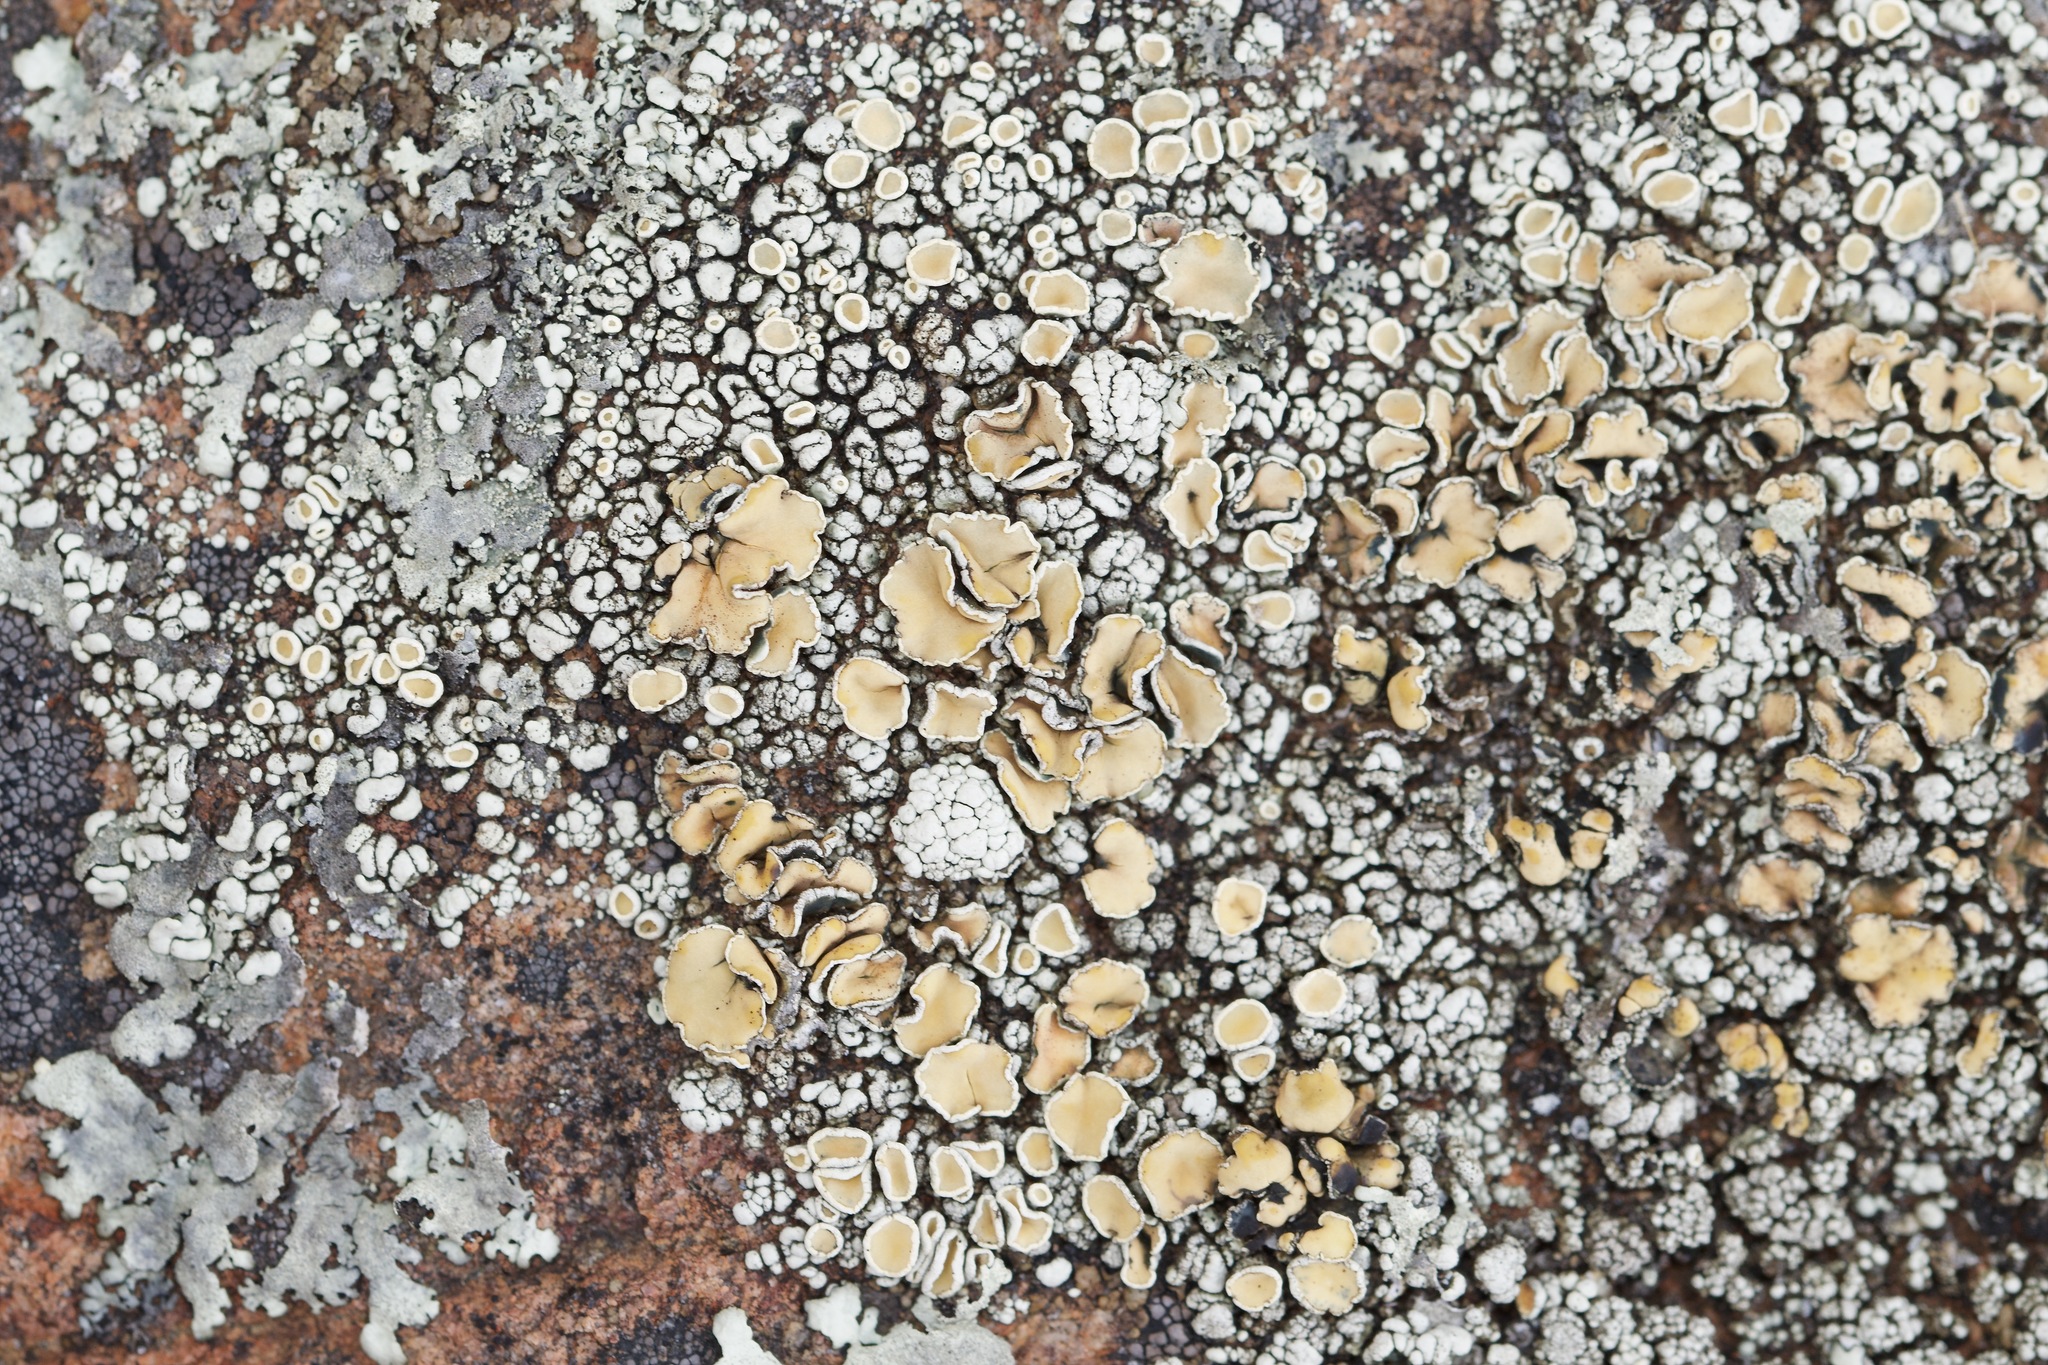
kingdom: Fungi
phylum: Ascomycota
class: Lecanoromycetes
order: Lecanorales
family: Lecanoraceae
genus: Sedelnikovaea
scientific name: Sedelnikovaea subdiscrepans
